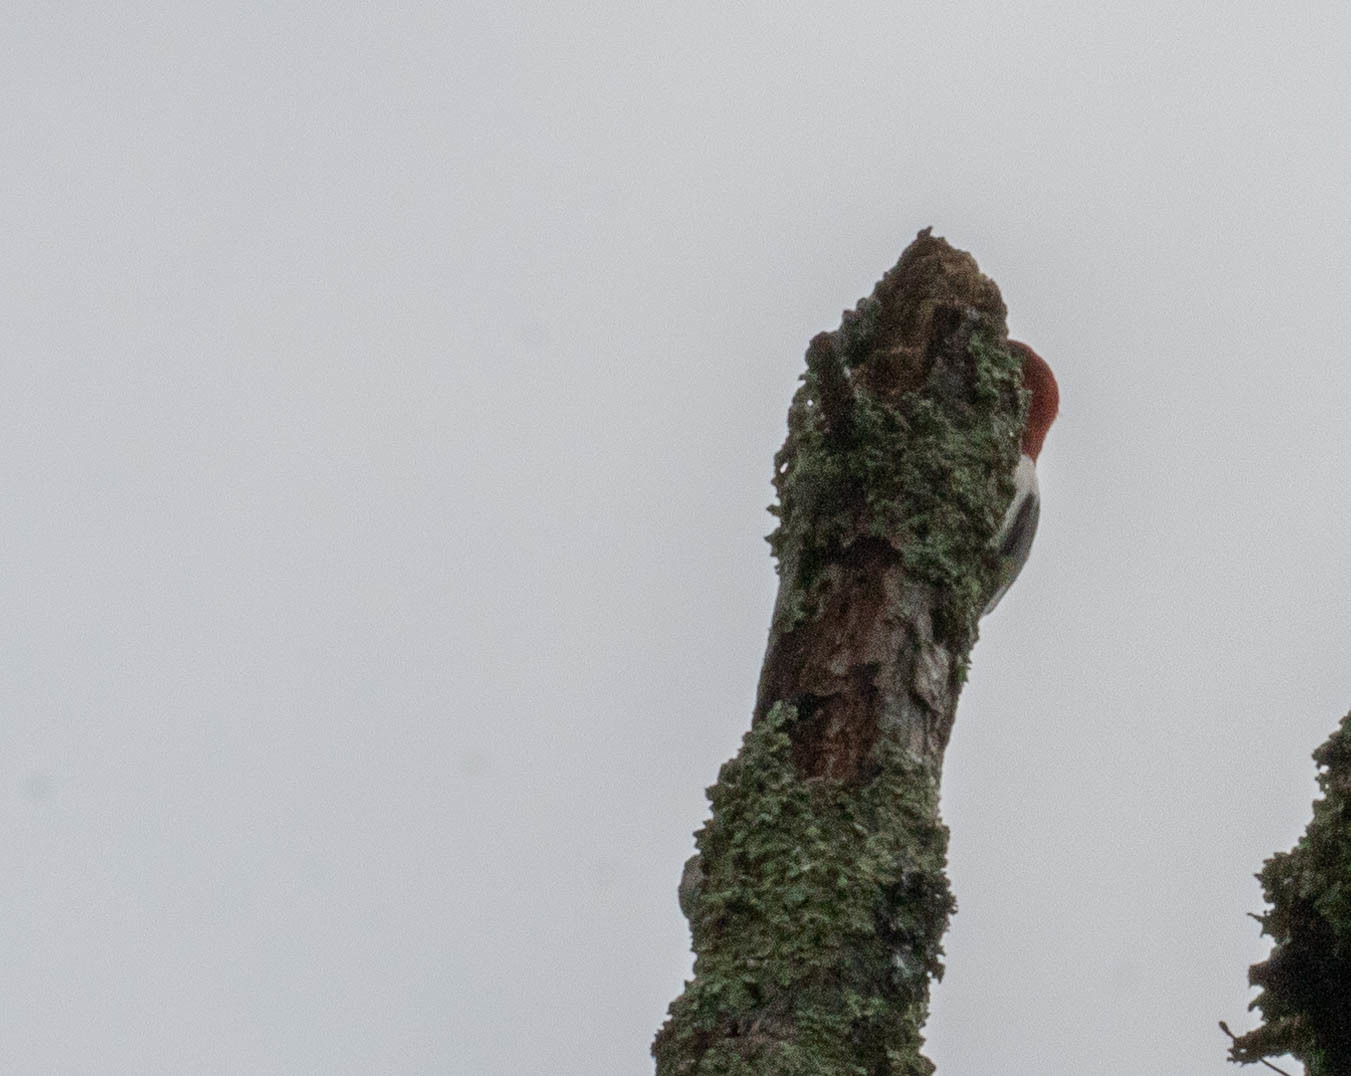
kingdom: Animalia
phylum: Chordata
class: Aves
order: Piciformes
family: Picidae
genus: Melanerpes
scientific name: Melanerpes erythrocephalus
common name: Red-headed woodpecker
